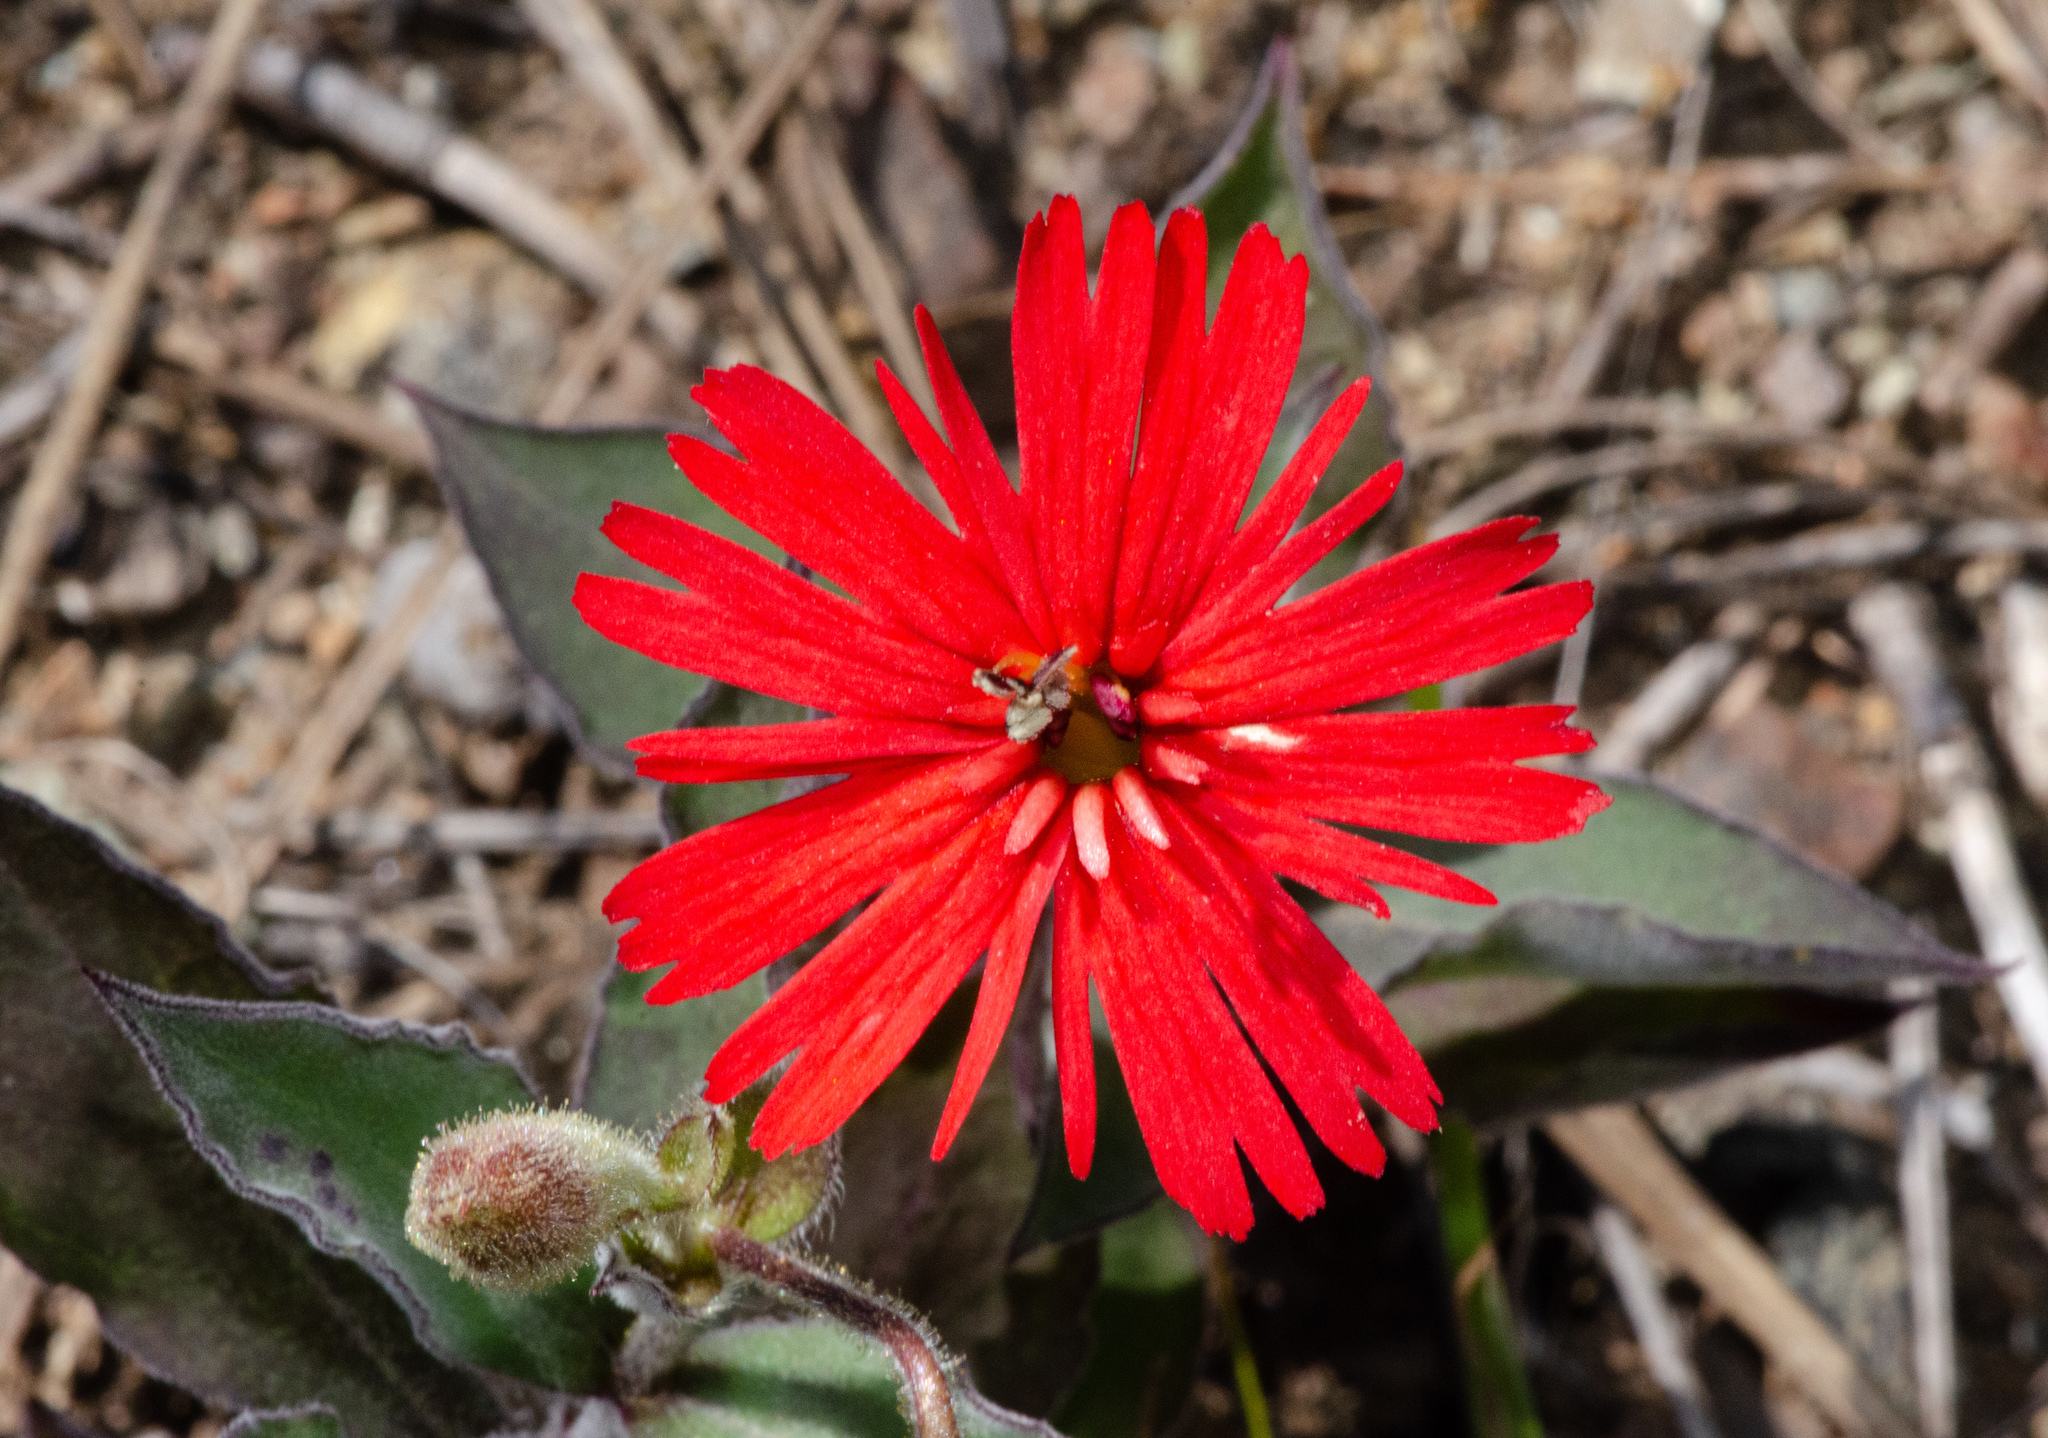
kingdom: Plantae
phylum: Tracheophyta
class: Magnoliopsida
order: Caryophyllales
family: Caryophyllaceae
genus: Silene
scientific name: Silene laciniata
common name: Indian-pink
